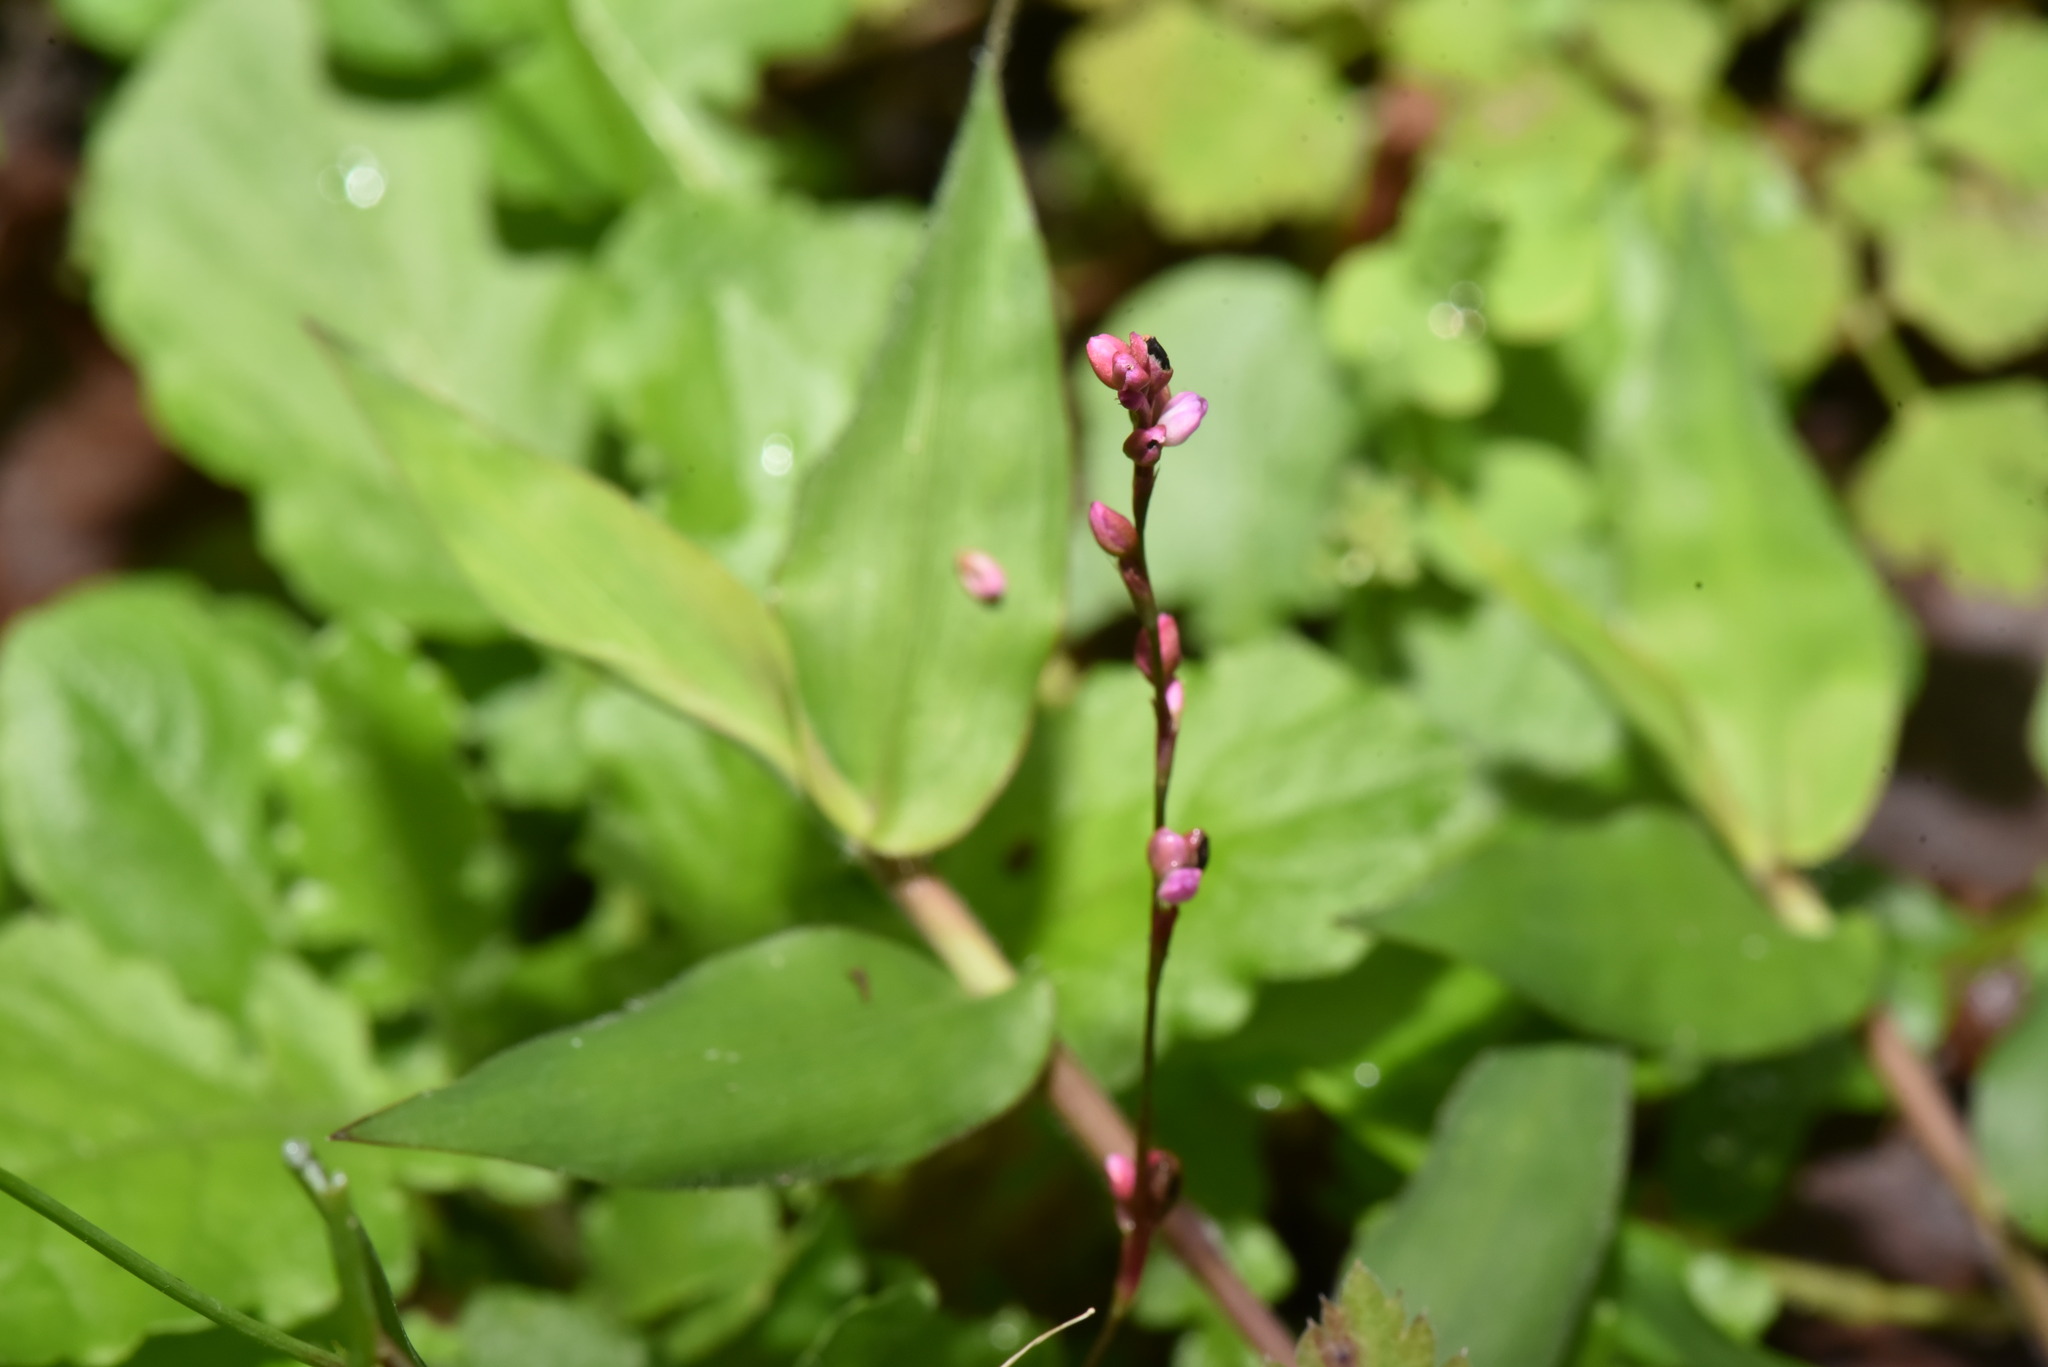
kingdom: Plantae
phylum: Tracheophyta
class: Magnoliopsida
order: Caryophyllales
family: Polygonaceae
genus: Persicaria
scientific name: Persicaria posumbu
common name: Oriental lady's thumb
